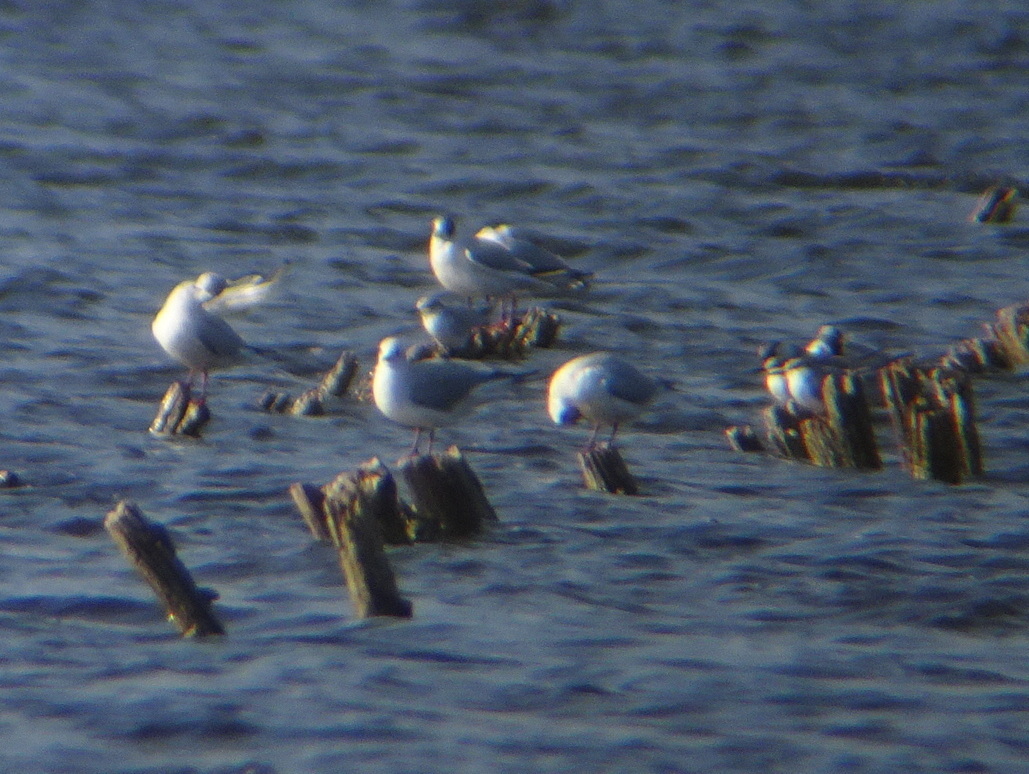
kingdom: Animalia
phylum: Chordata
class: Aves
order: Charadriiformes
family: Laridae
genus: Chlidonias
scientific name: Chlidonias hybrida
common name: Whiskered tern
